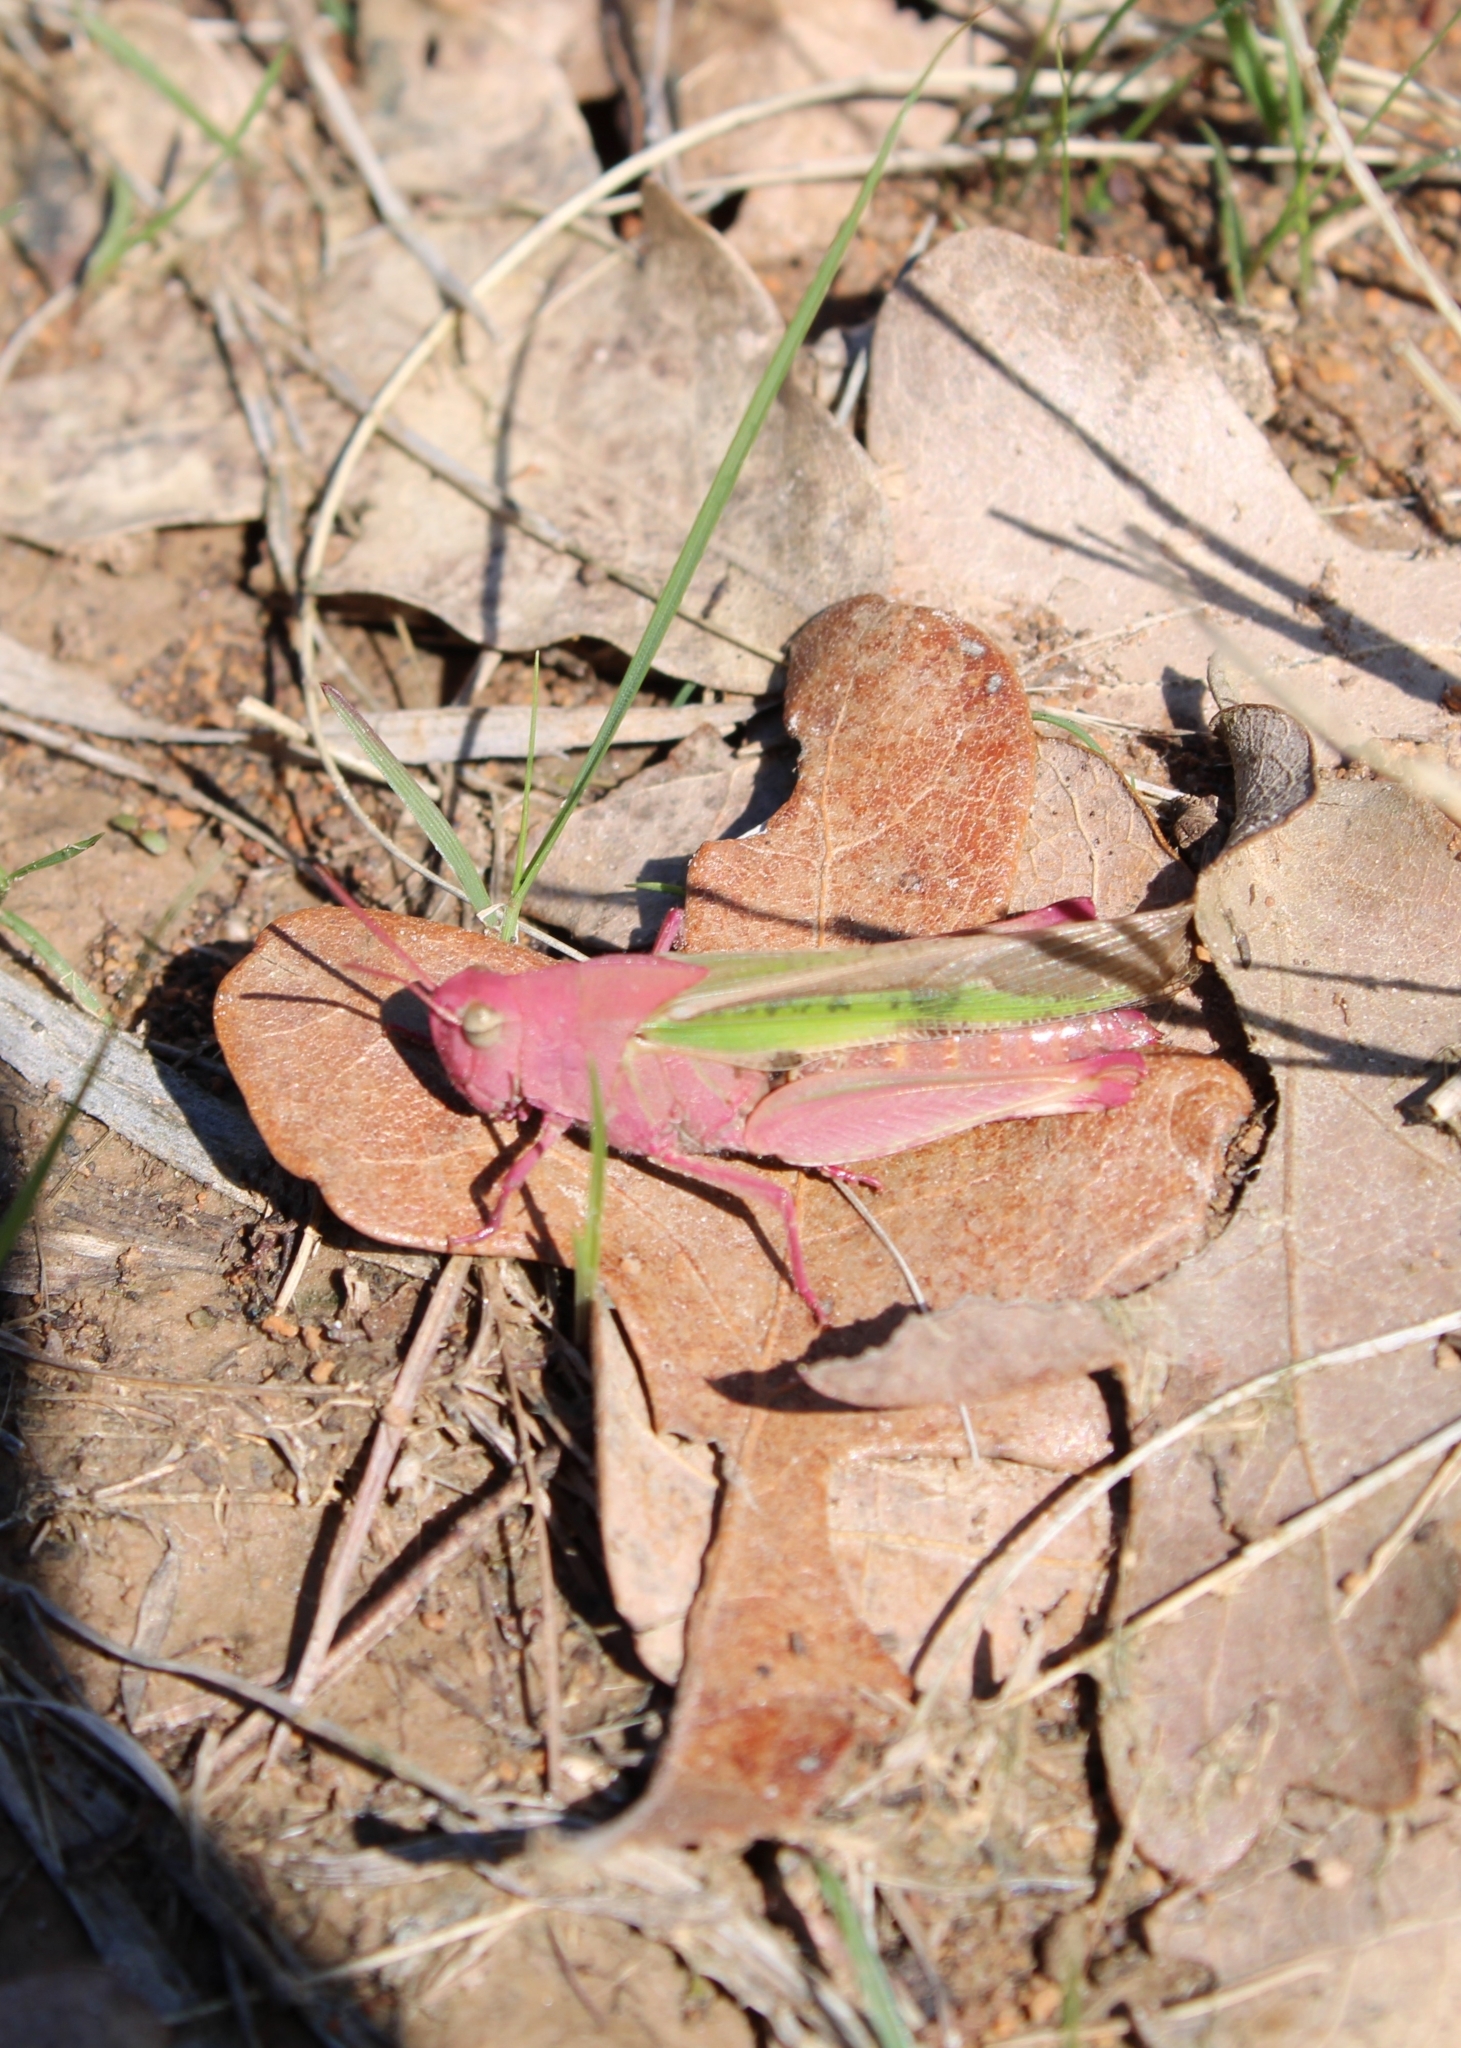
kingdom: Animalia
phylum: Arthropoda
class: Insecta
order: Orthoptera
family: Acrididae
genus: Chortophaga
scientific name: Chortophaga viridifasciata
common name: Green-striped grasshopper
